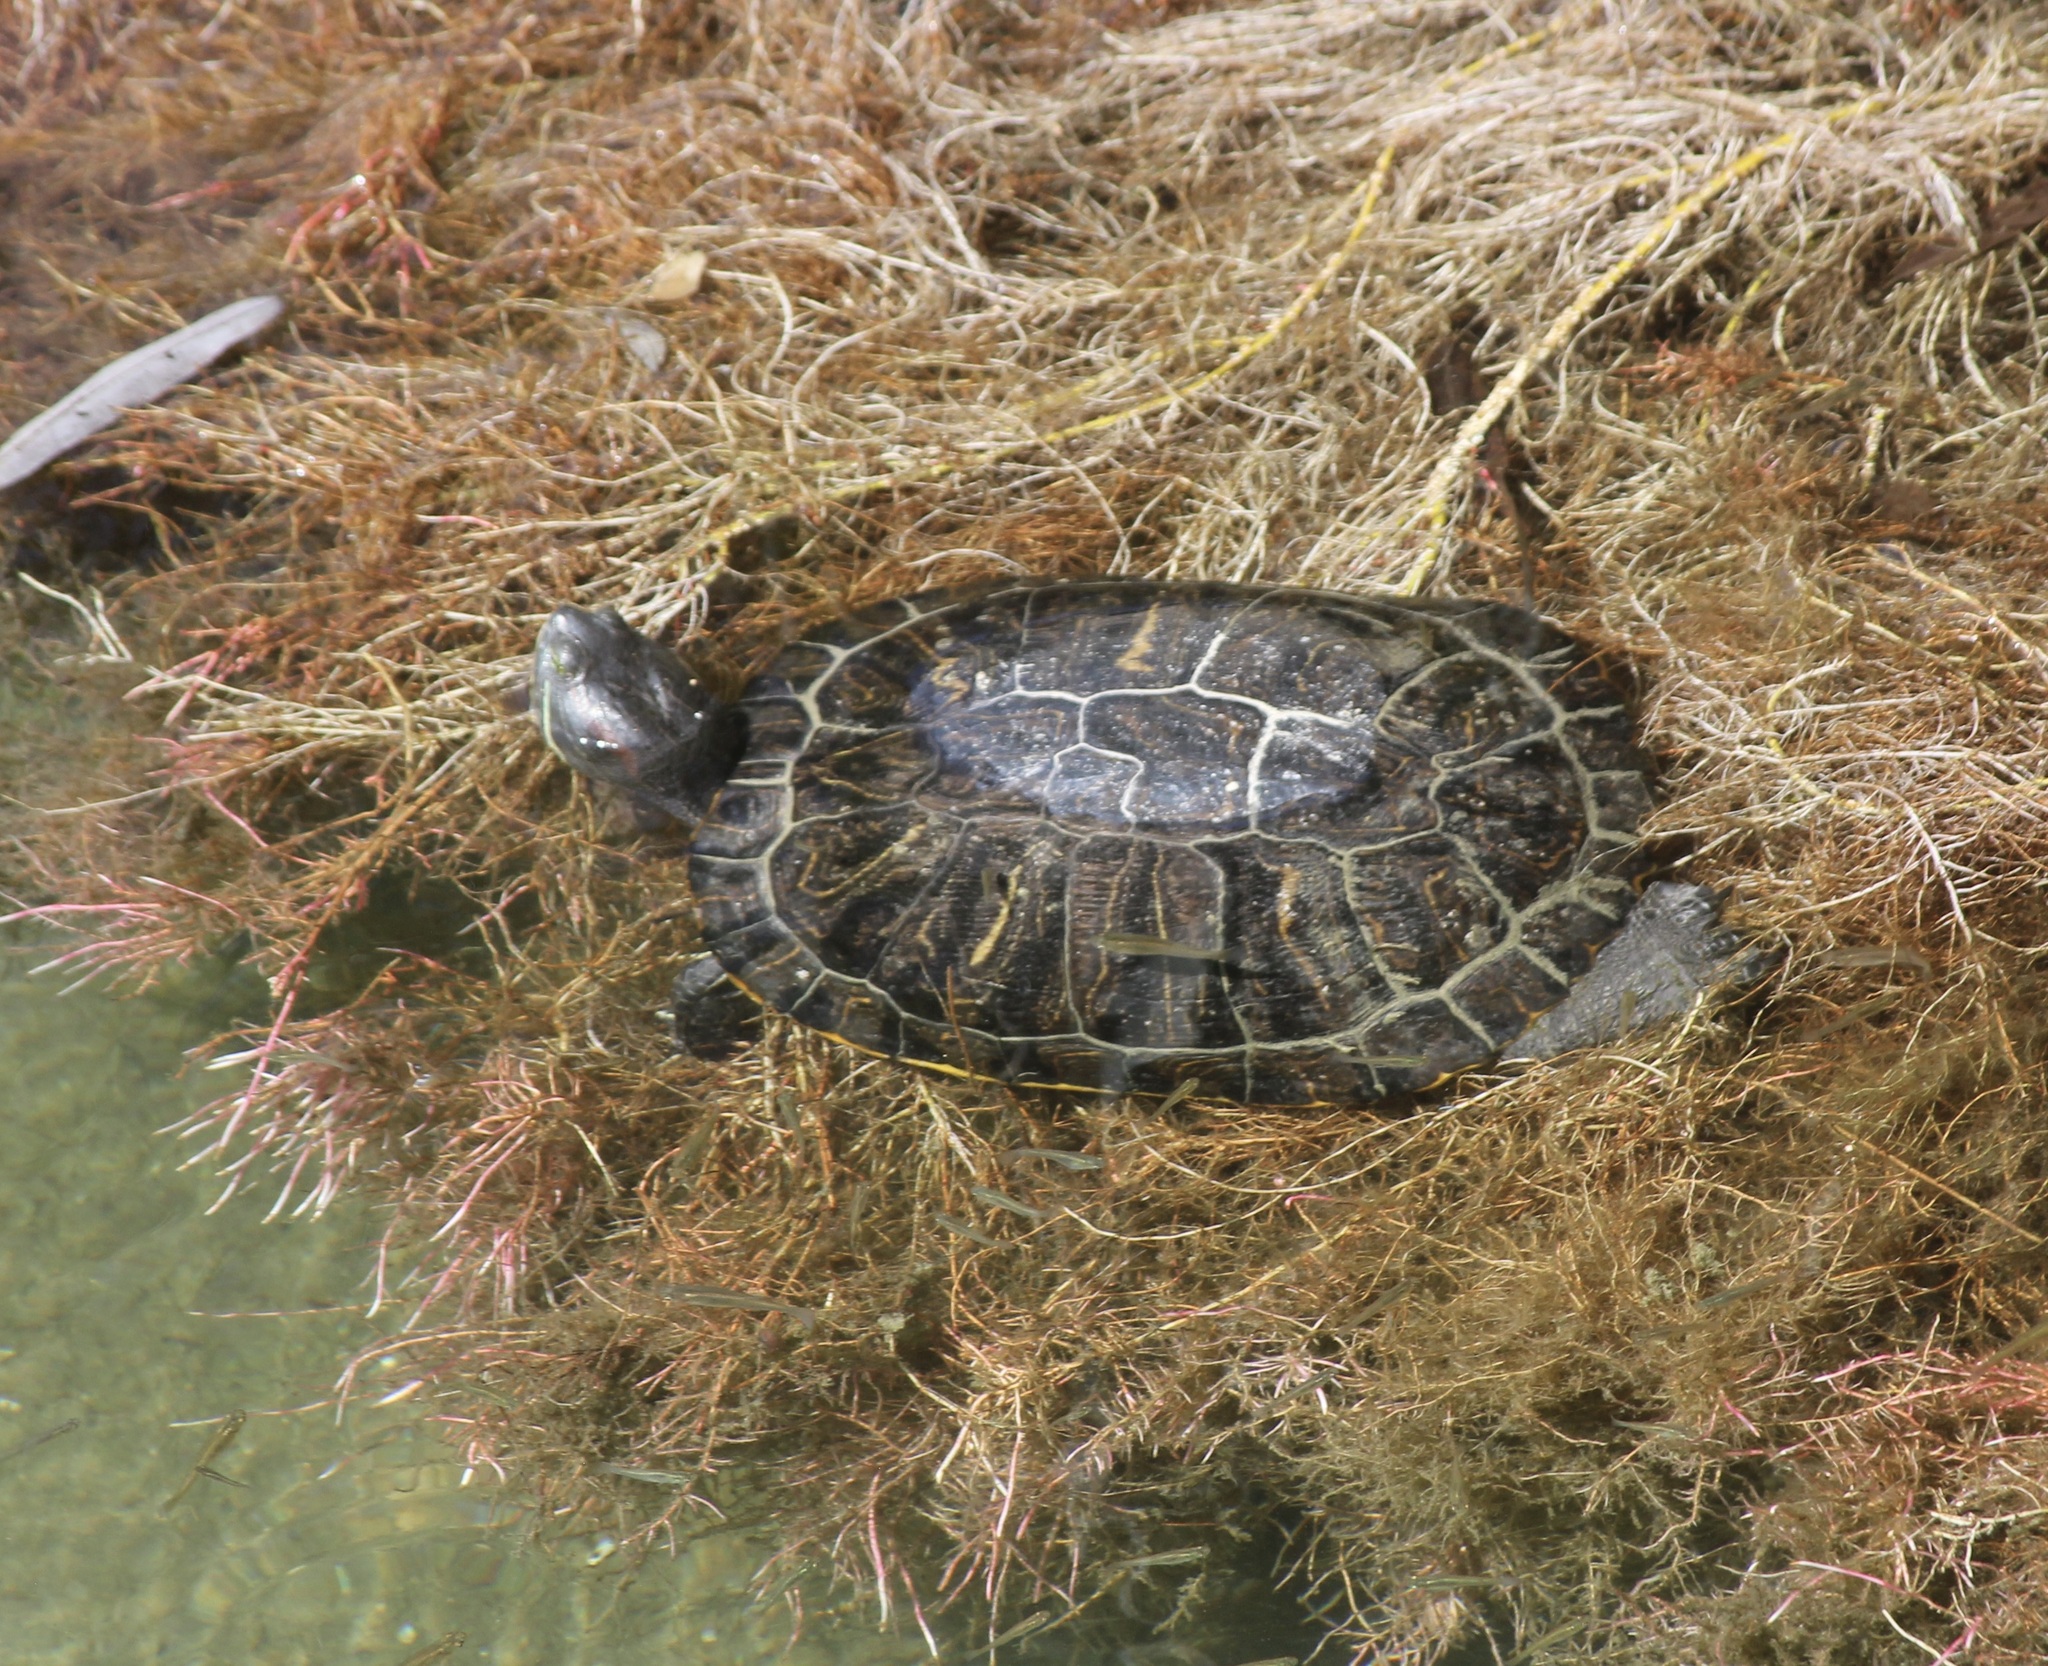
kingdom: Animalia
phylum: Chordata
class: Testudines
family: Emydidae
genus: Trachemys
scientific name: Trachemys scripta
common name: Slider
